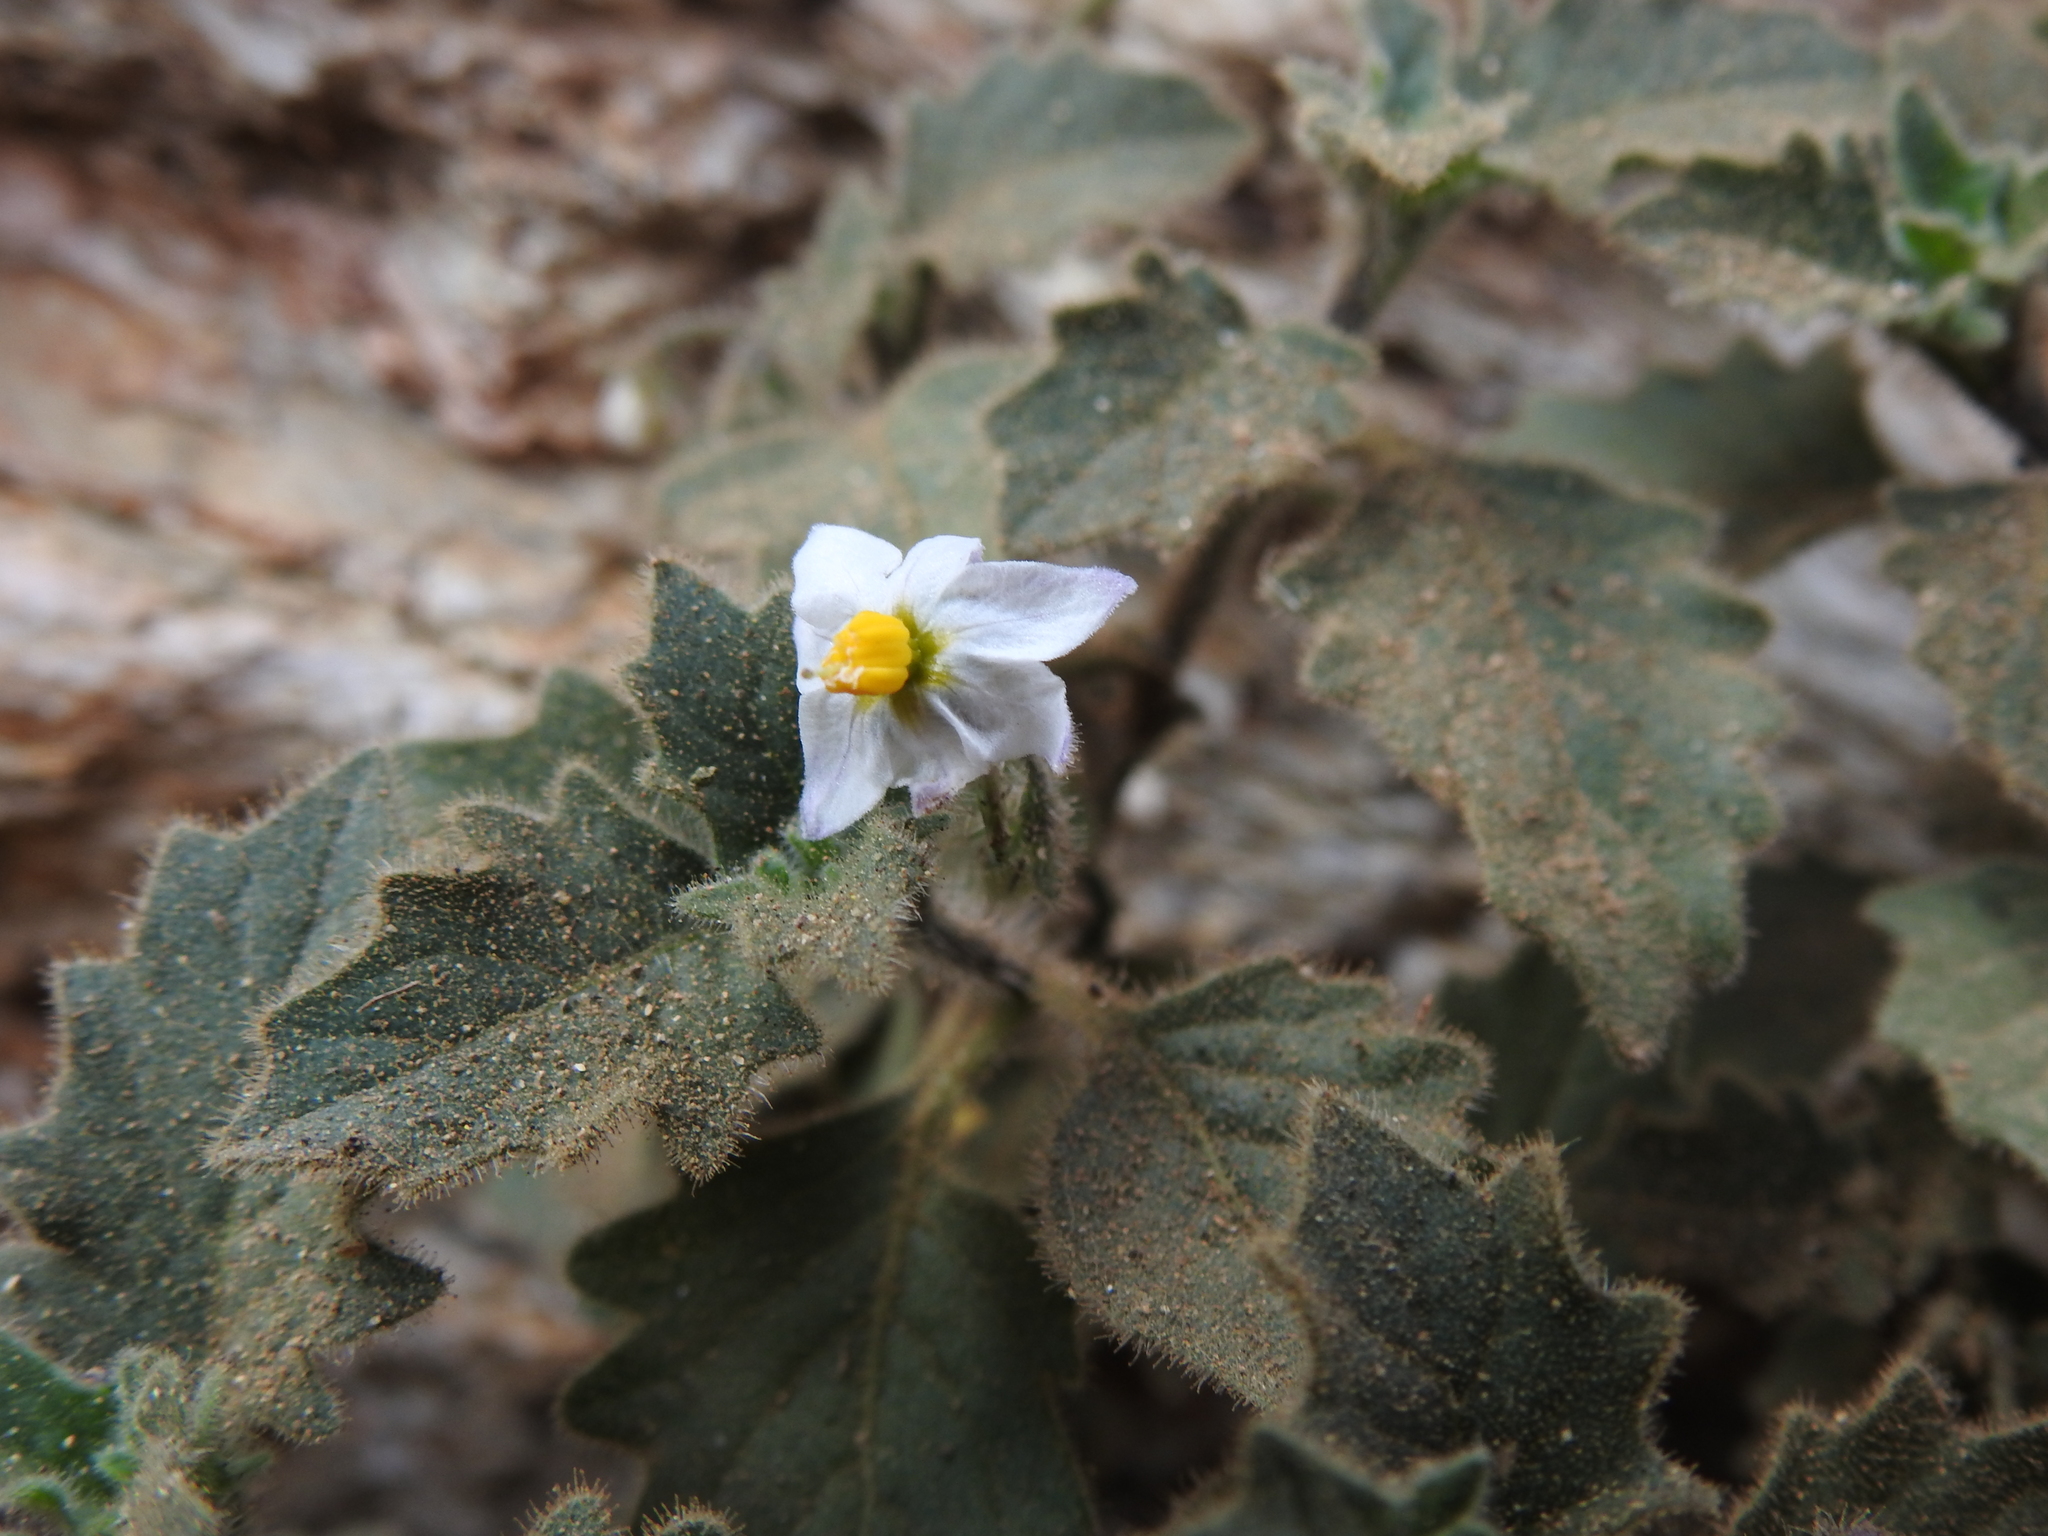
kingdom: Plantae
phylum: Tracheophyta
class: Magnoliopsida
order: Solanales
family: Solanaceae
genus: Solanum
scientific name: Solanum villosum
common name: Red nightshade
